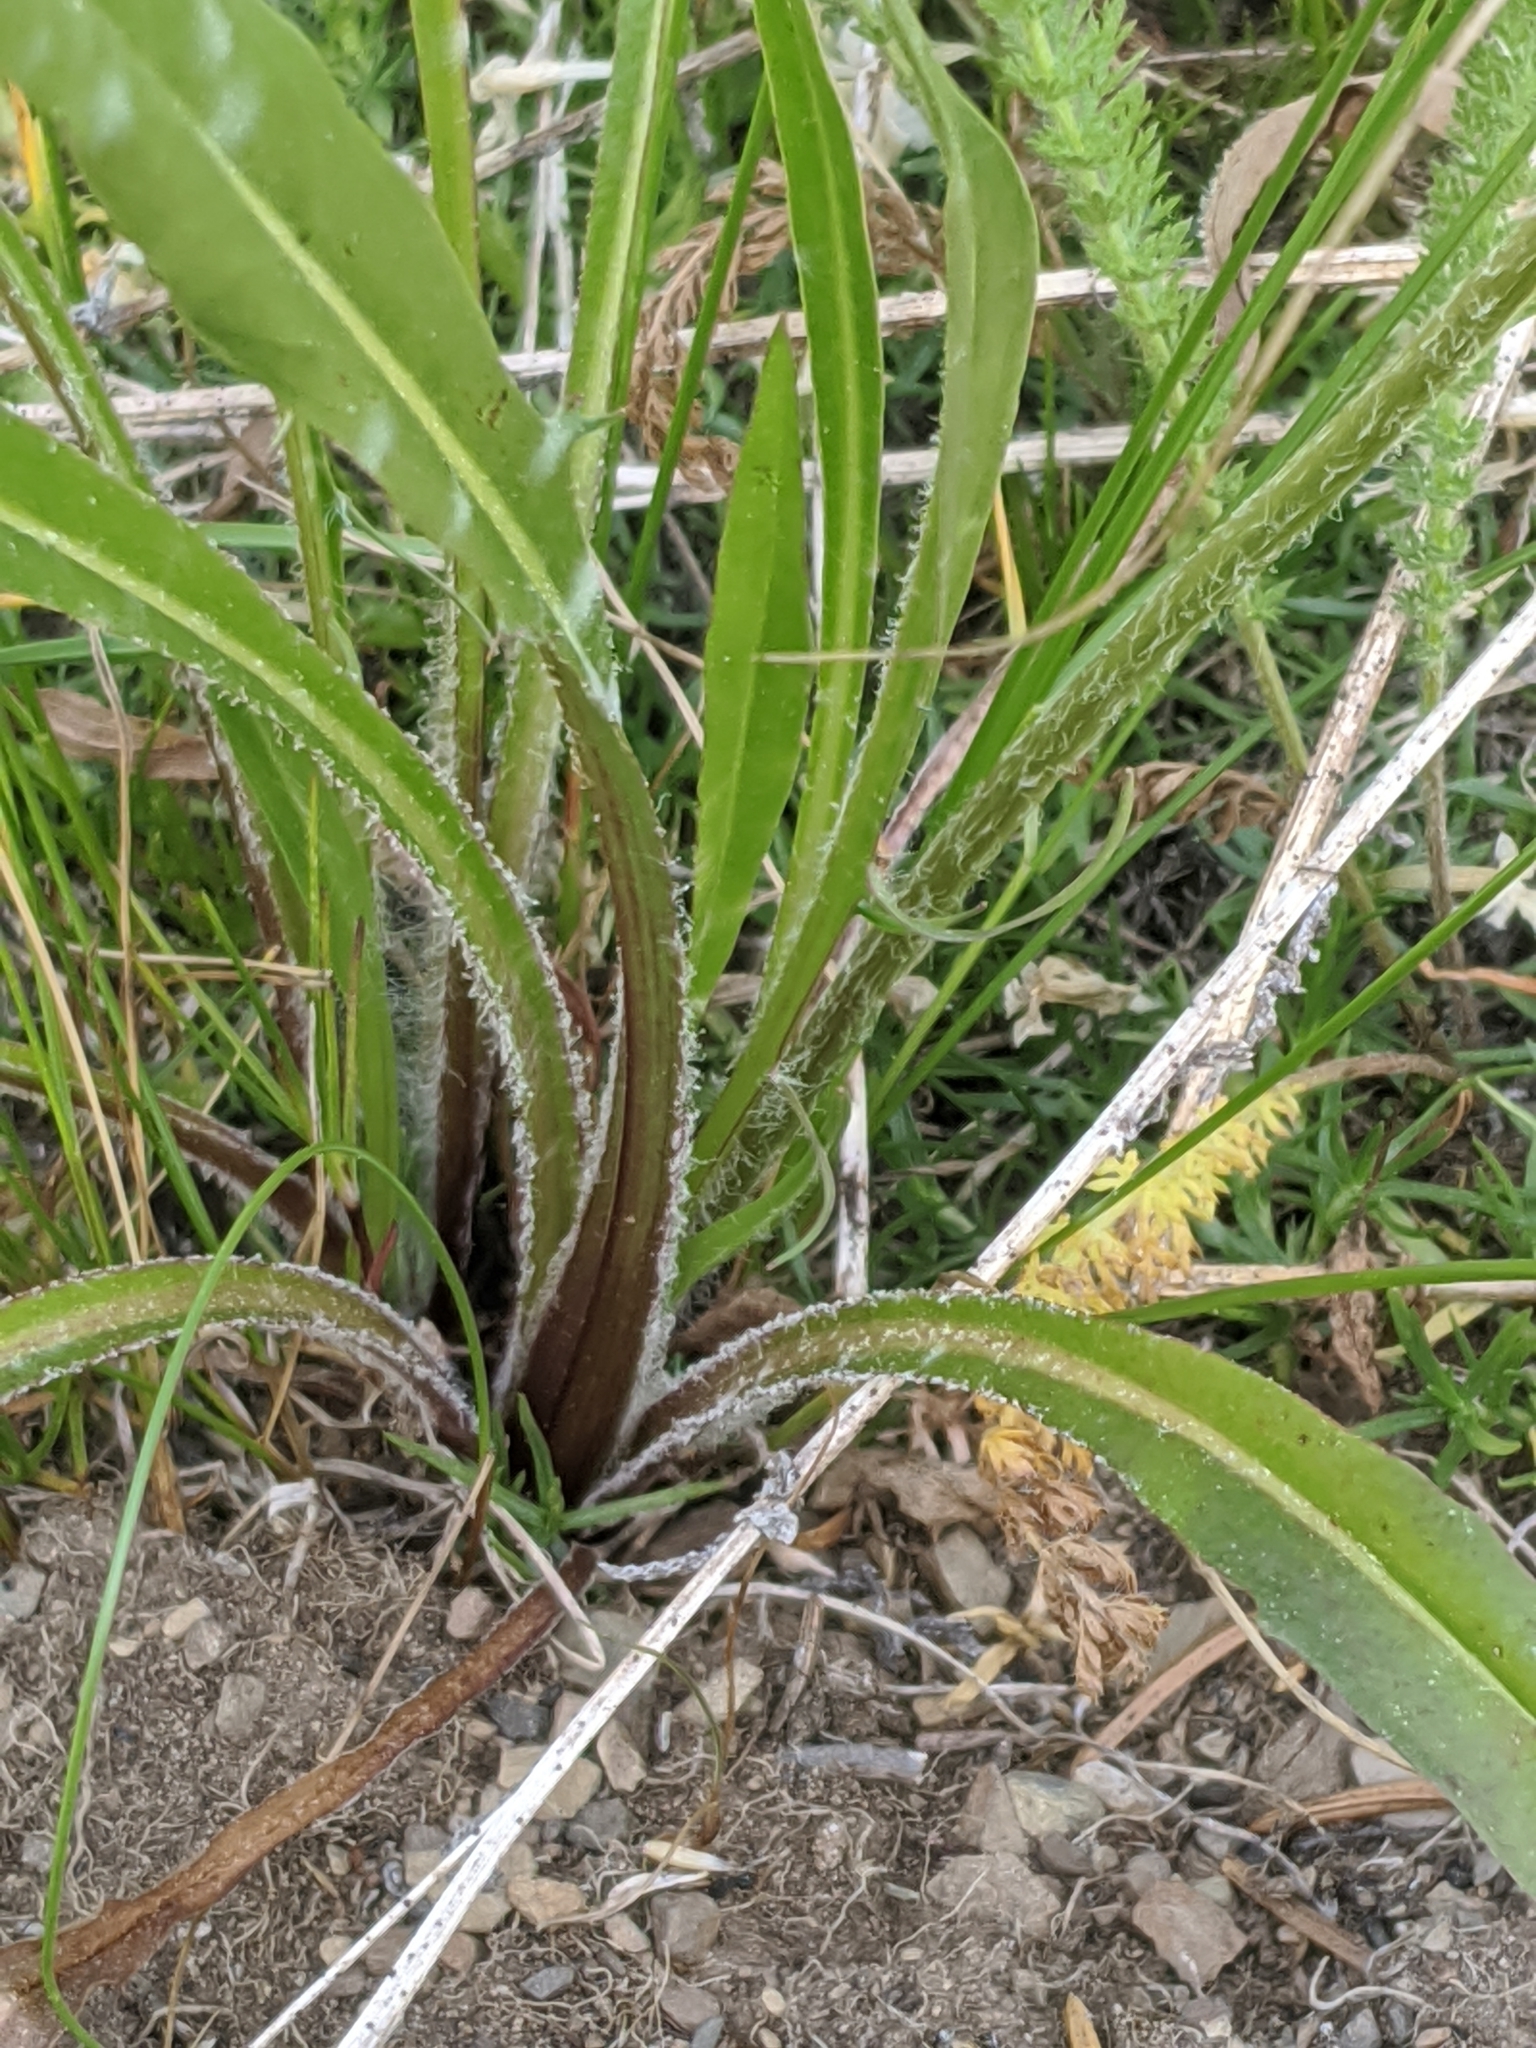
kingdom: Plantae
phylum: Tracheophyta
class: Magnoliopsida
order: Asterales
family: Asteraceae
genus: Agoseris
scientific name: Agoseris aurantiaca
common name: Mountain agoseris
